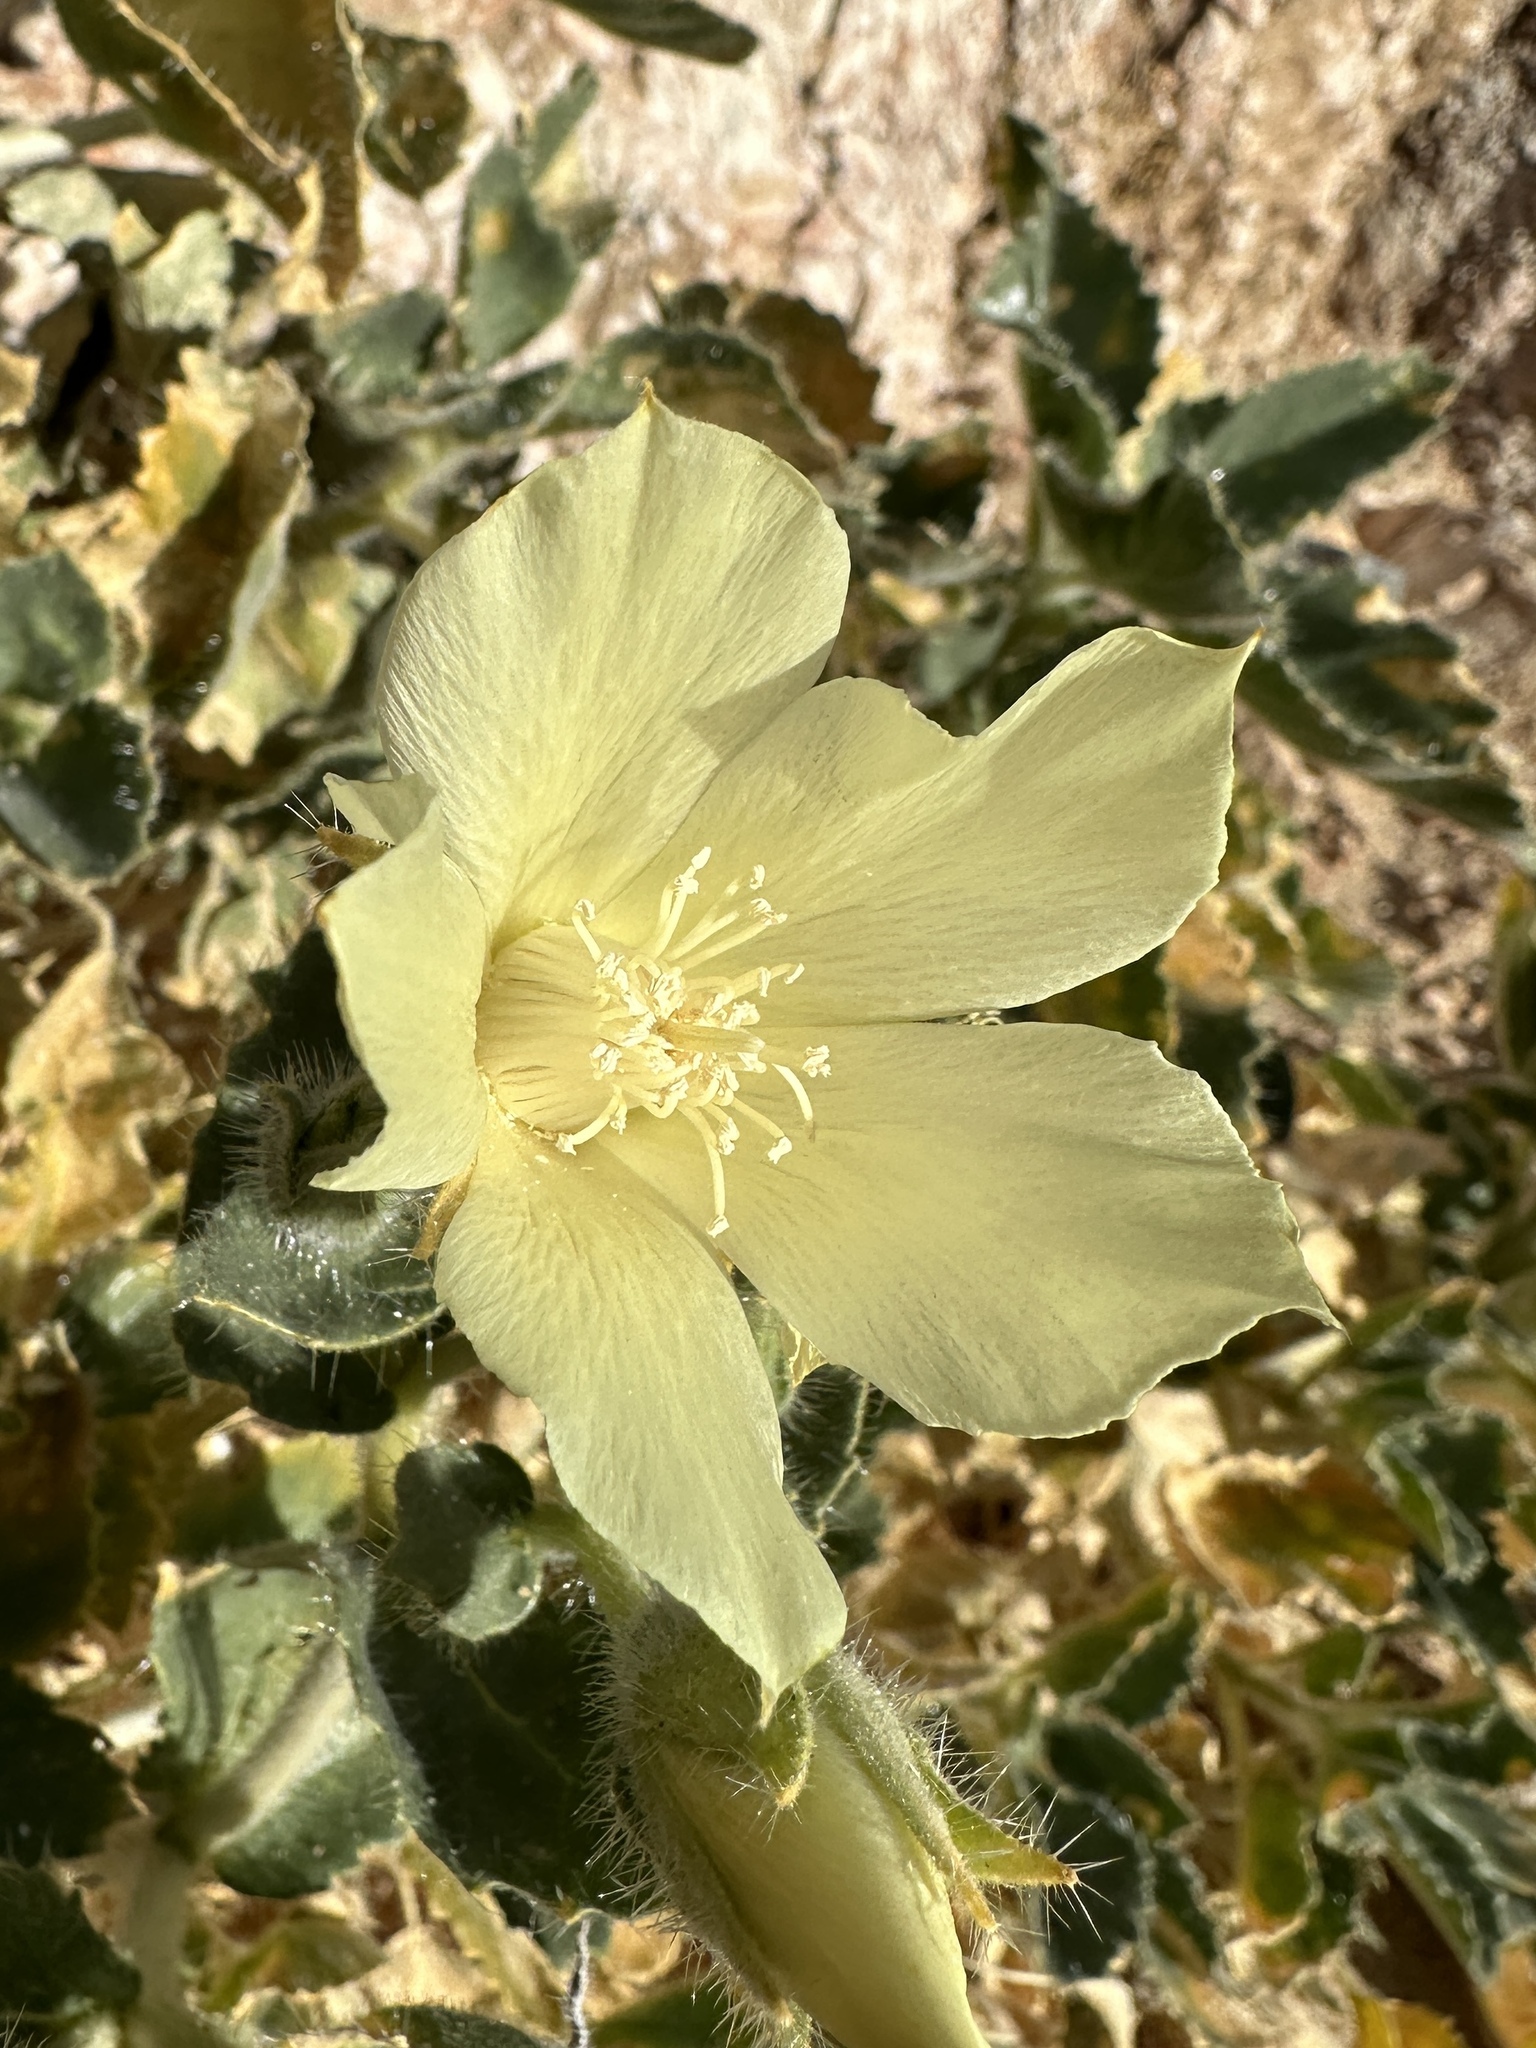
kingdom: Plantae
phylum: Tracheophyta
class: Magnoliopsida
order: Cornales
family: Loasaceae
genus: Eucnide
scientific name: Eucnide urens
